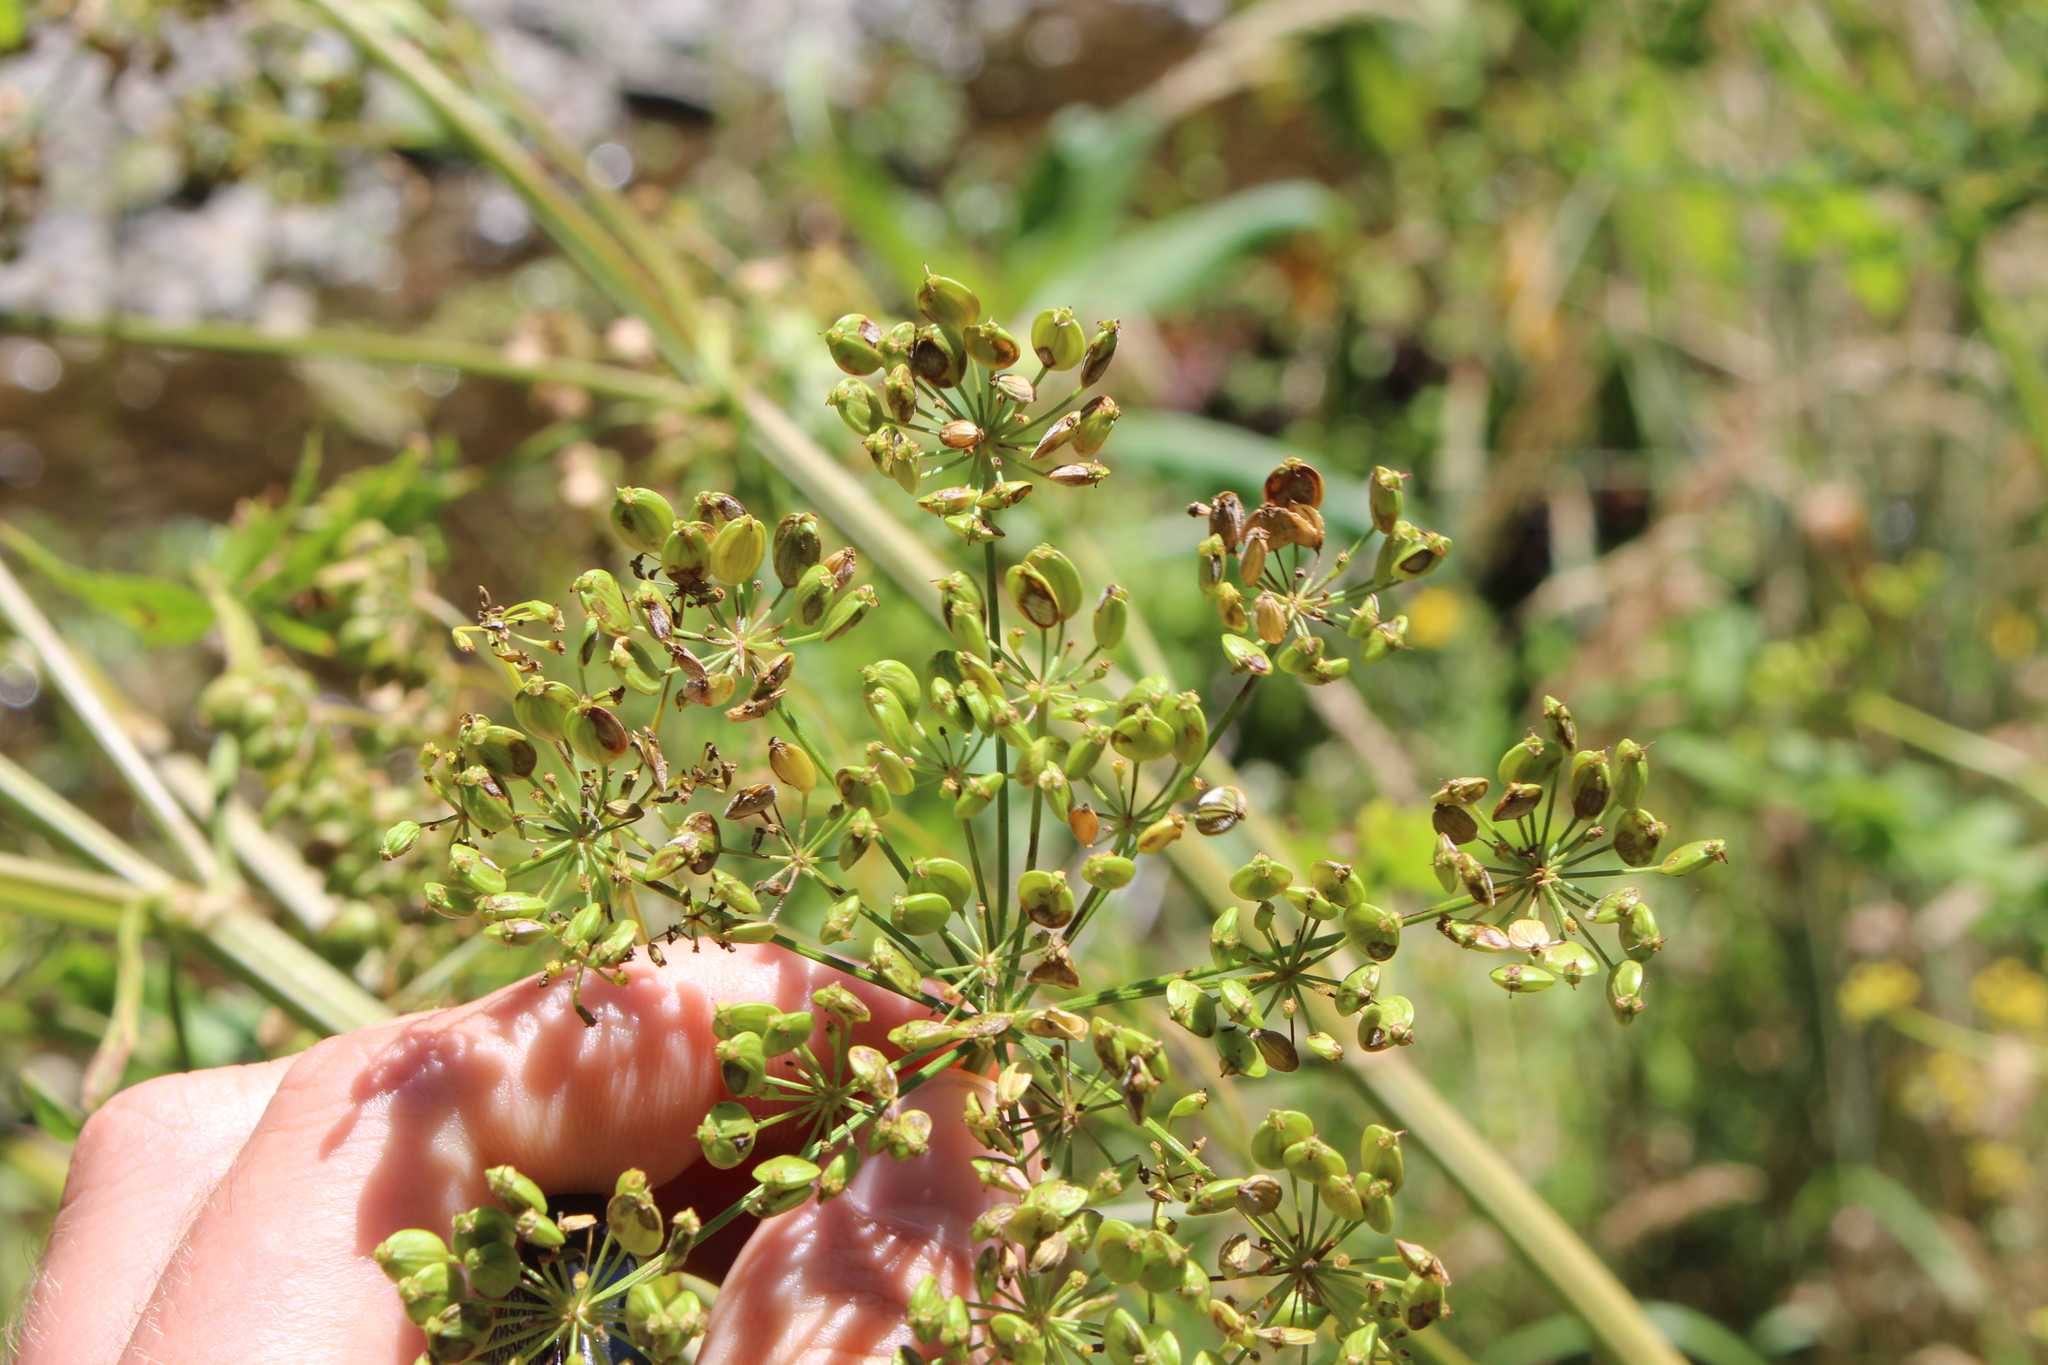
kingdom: Plantae
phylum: Tracheophyta
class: Magnoliopsida
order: Apiales
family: Apiaceae
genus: Pastinaca
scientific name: Pastinaca sativa
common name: Wild parsnip
